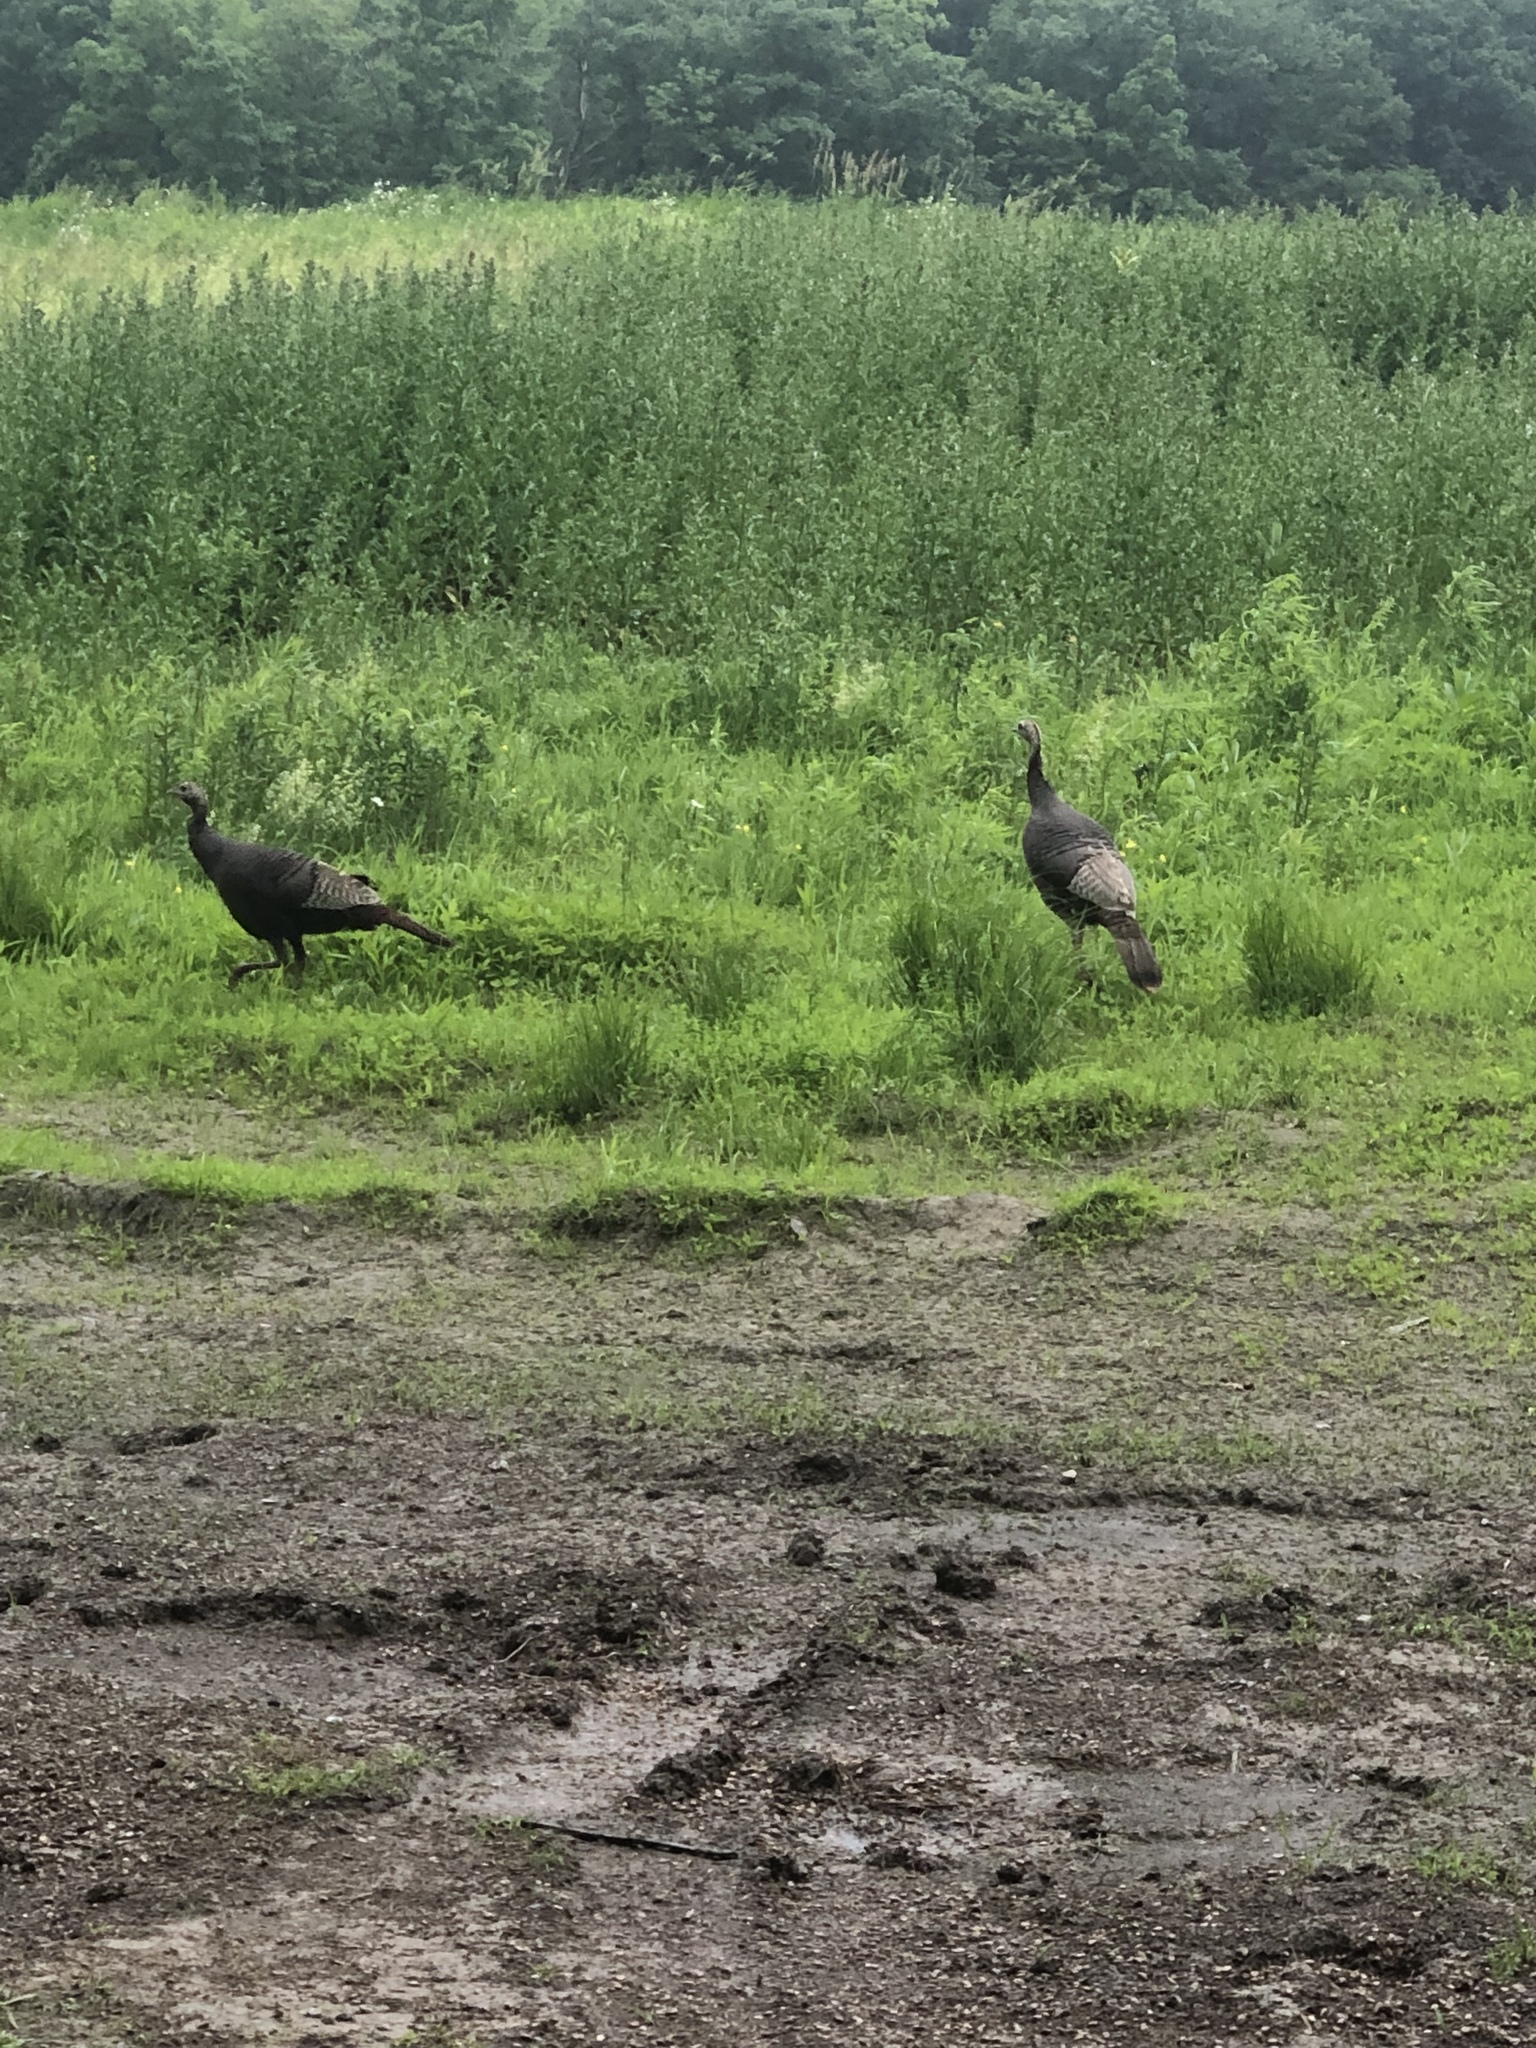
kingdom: Animalia
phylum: Chordata
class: Aves
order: Galliformes
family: Phasianidae
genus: Meleagris
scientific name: Meleagris gallopavo
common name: Wild turkey
